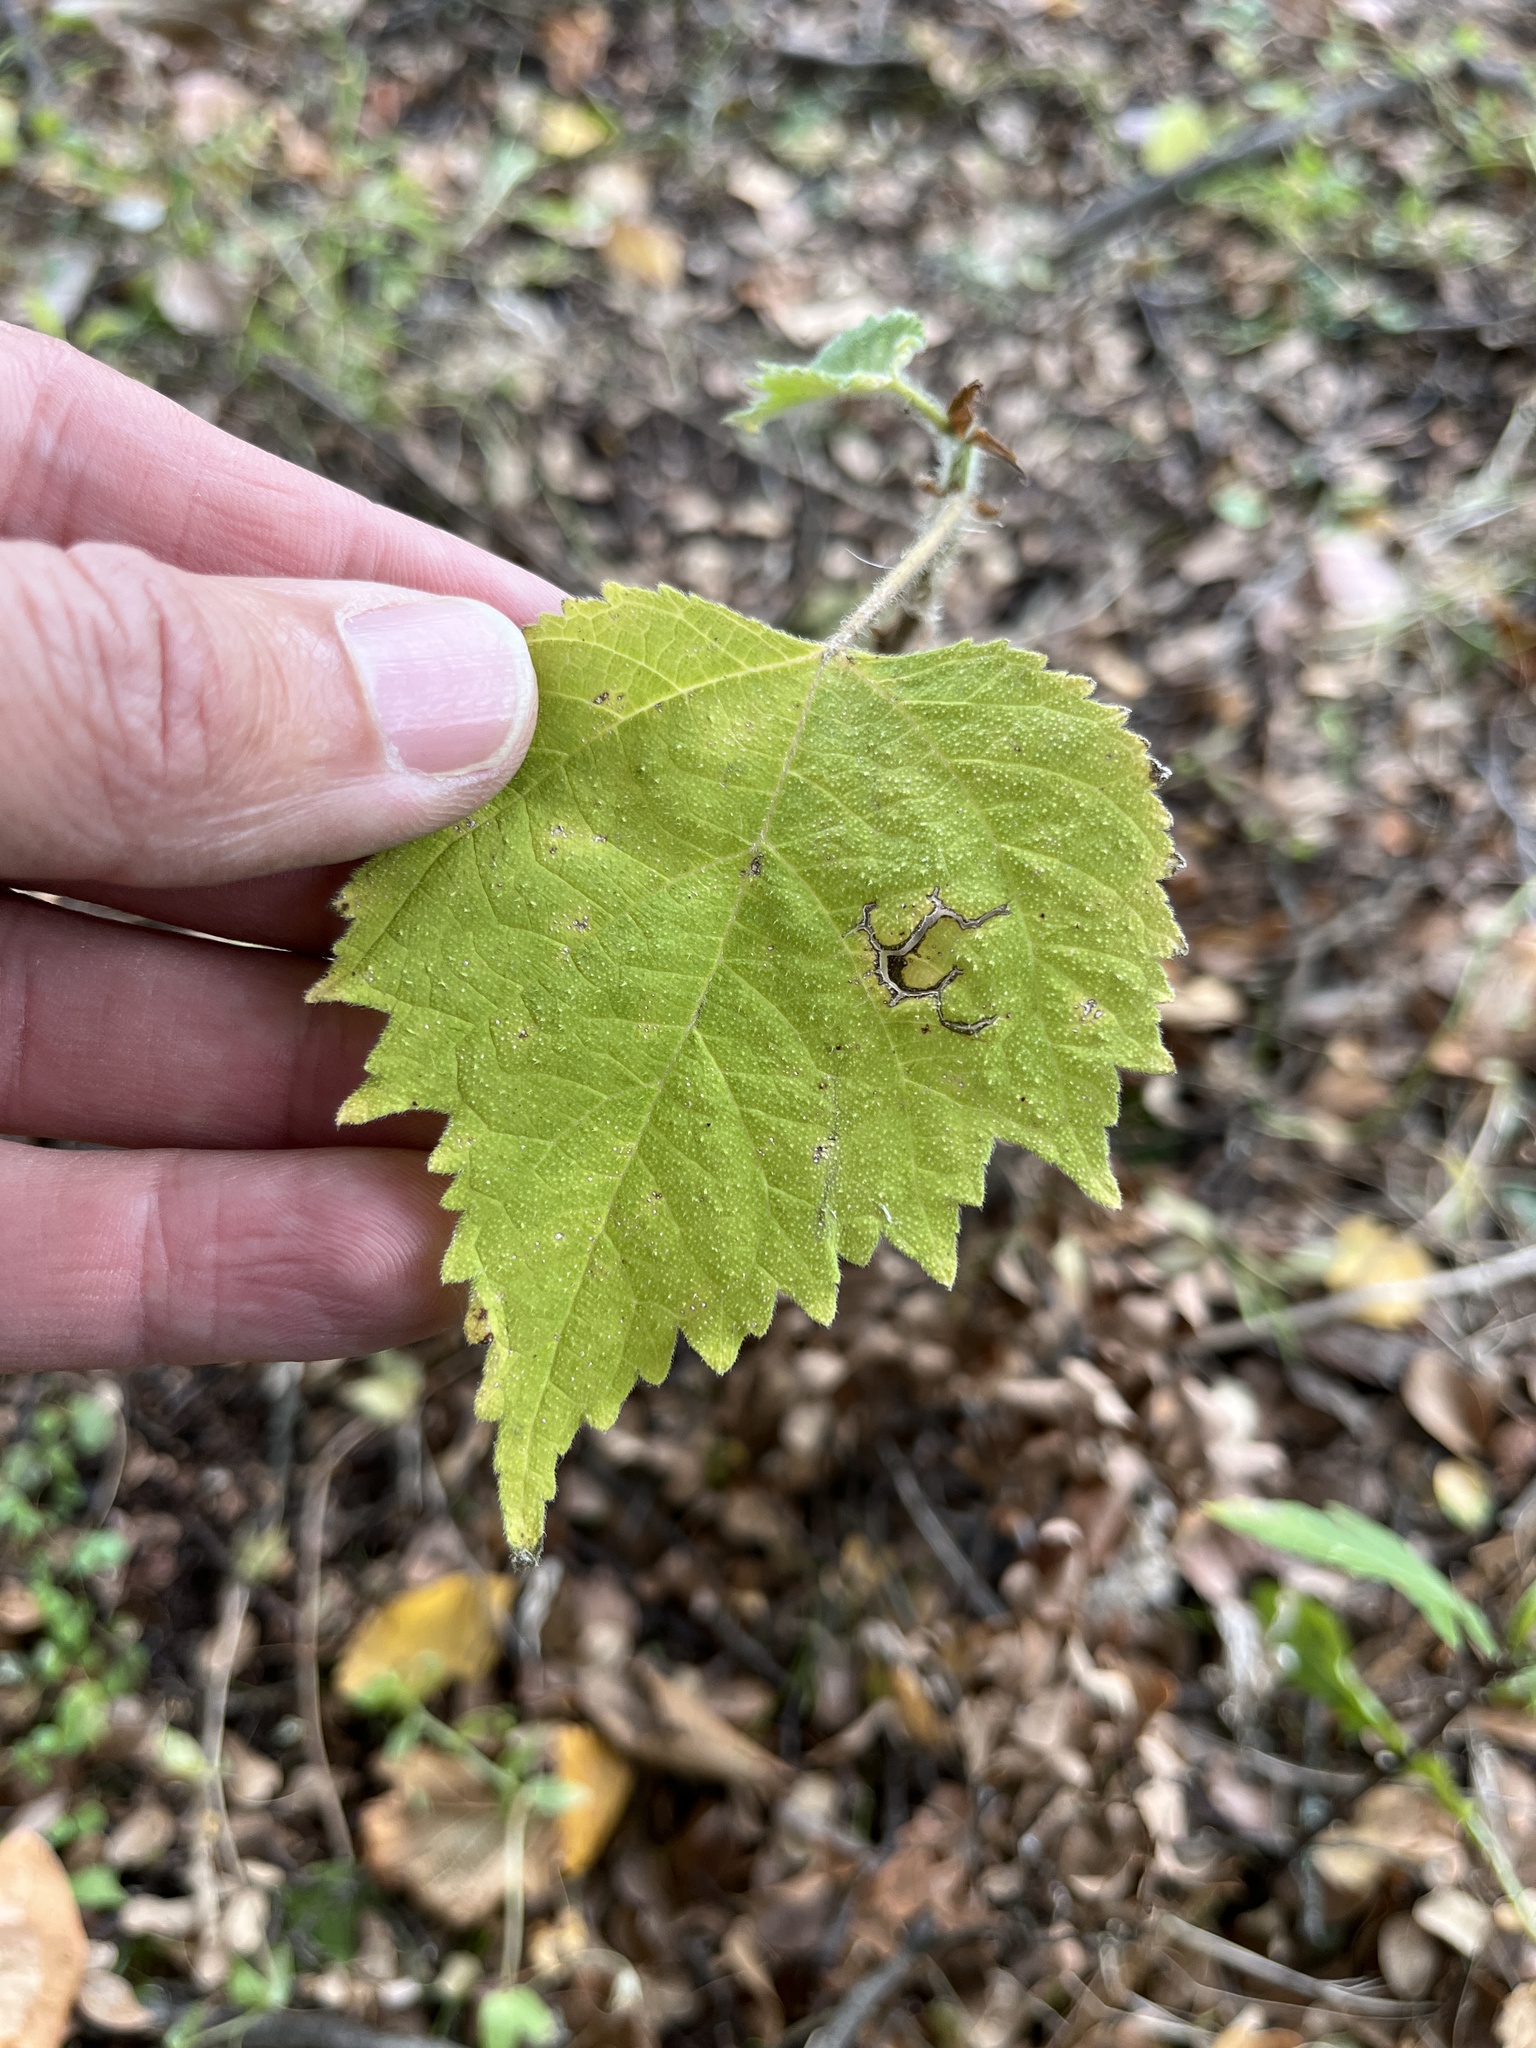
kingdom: Plantae
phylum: Tracheophyta
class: Magnoliopsida
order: Rosales
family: Moraceae
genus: Broussonetia
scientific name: Broussonetia papyrifera
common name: Paper mulberry
